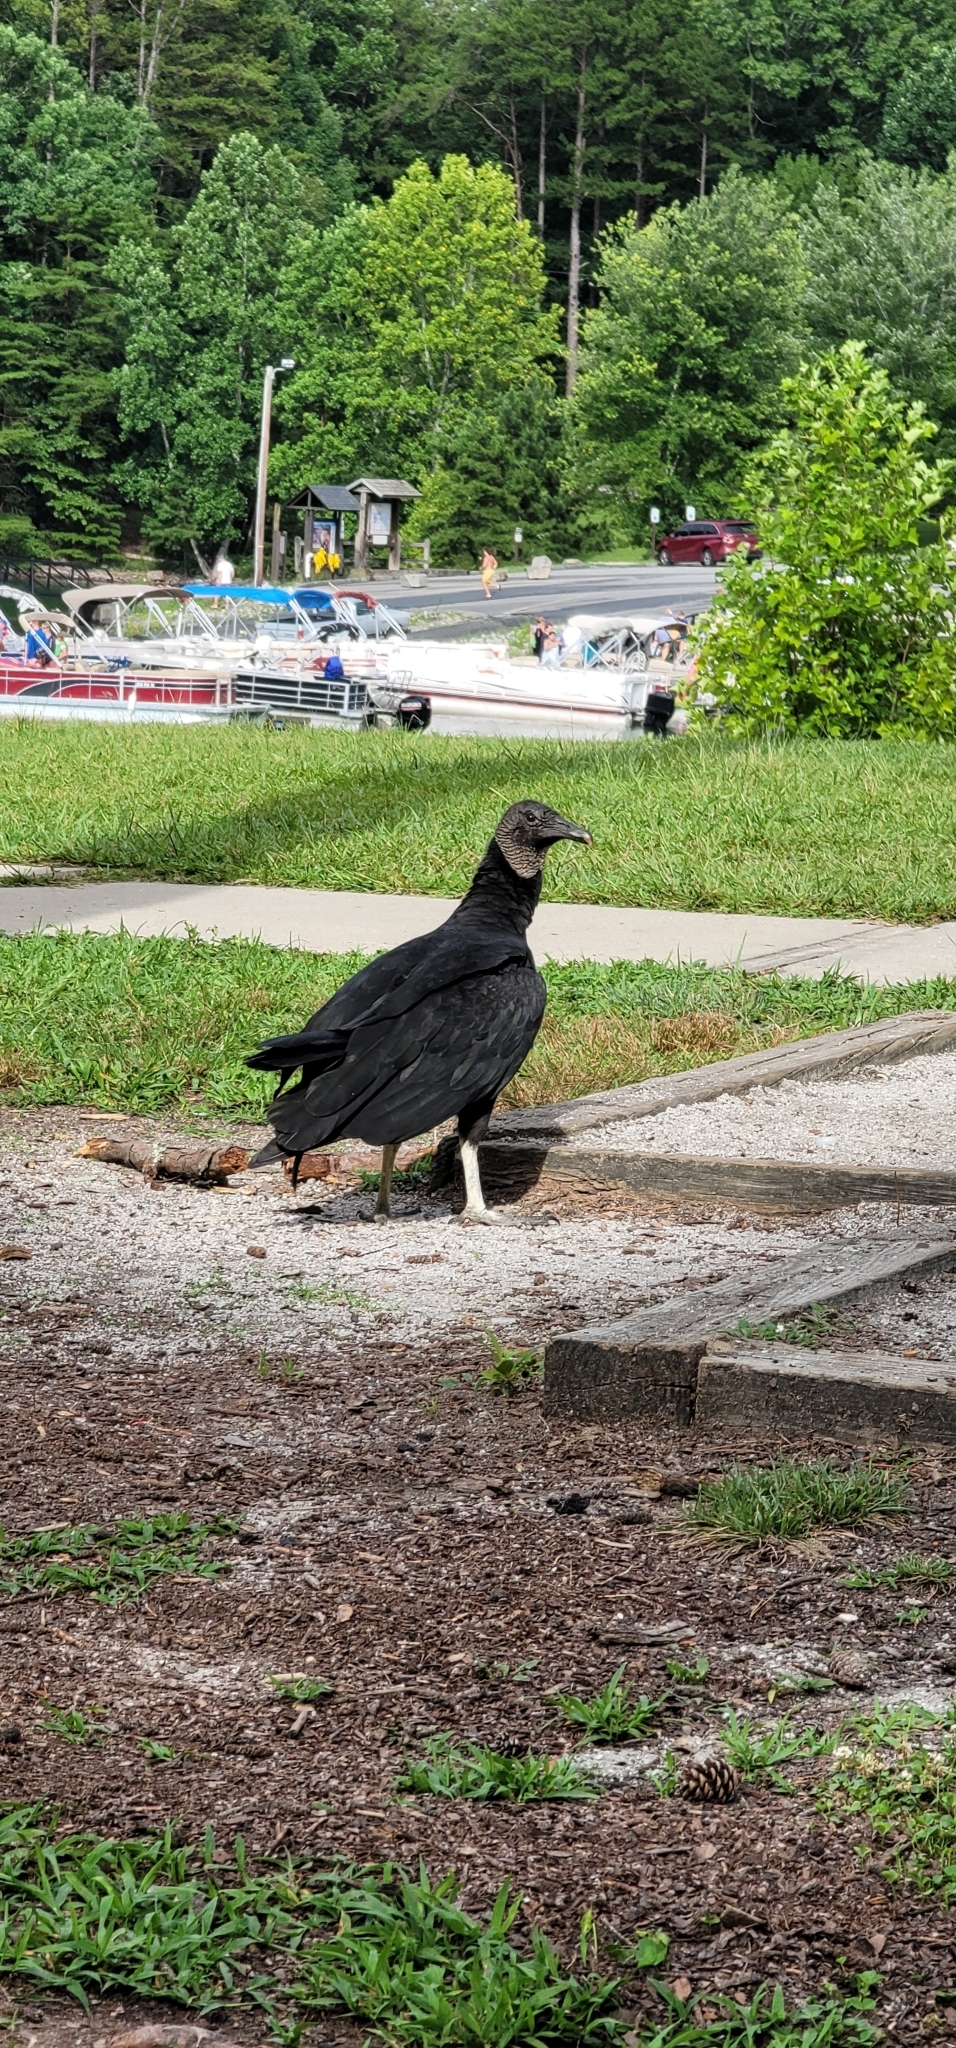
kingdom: Animalia
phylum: Chordata
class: Aves
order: Accipitriformes
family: Cathartidae
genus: Coragyps
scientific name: Coragyps atratus
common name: Black vulture
